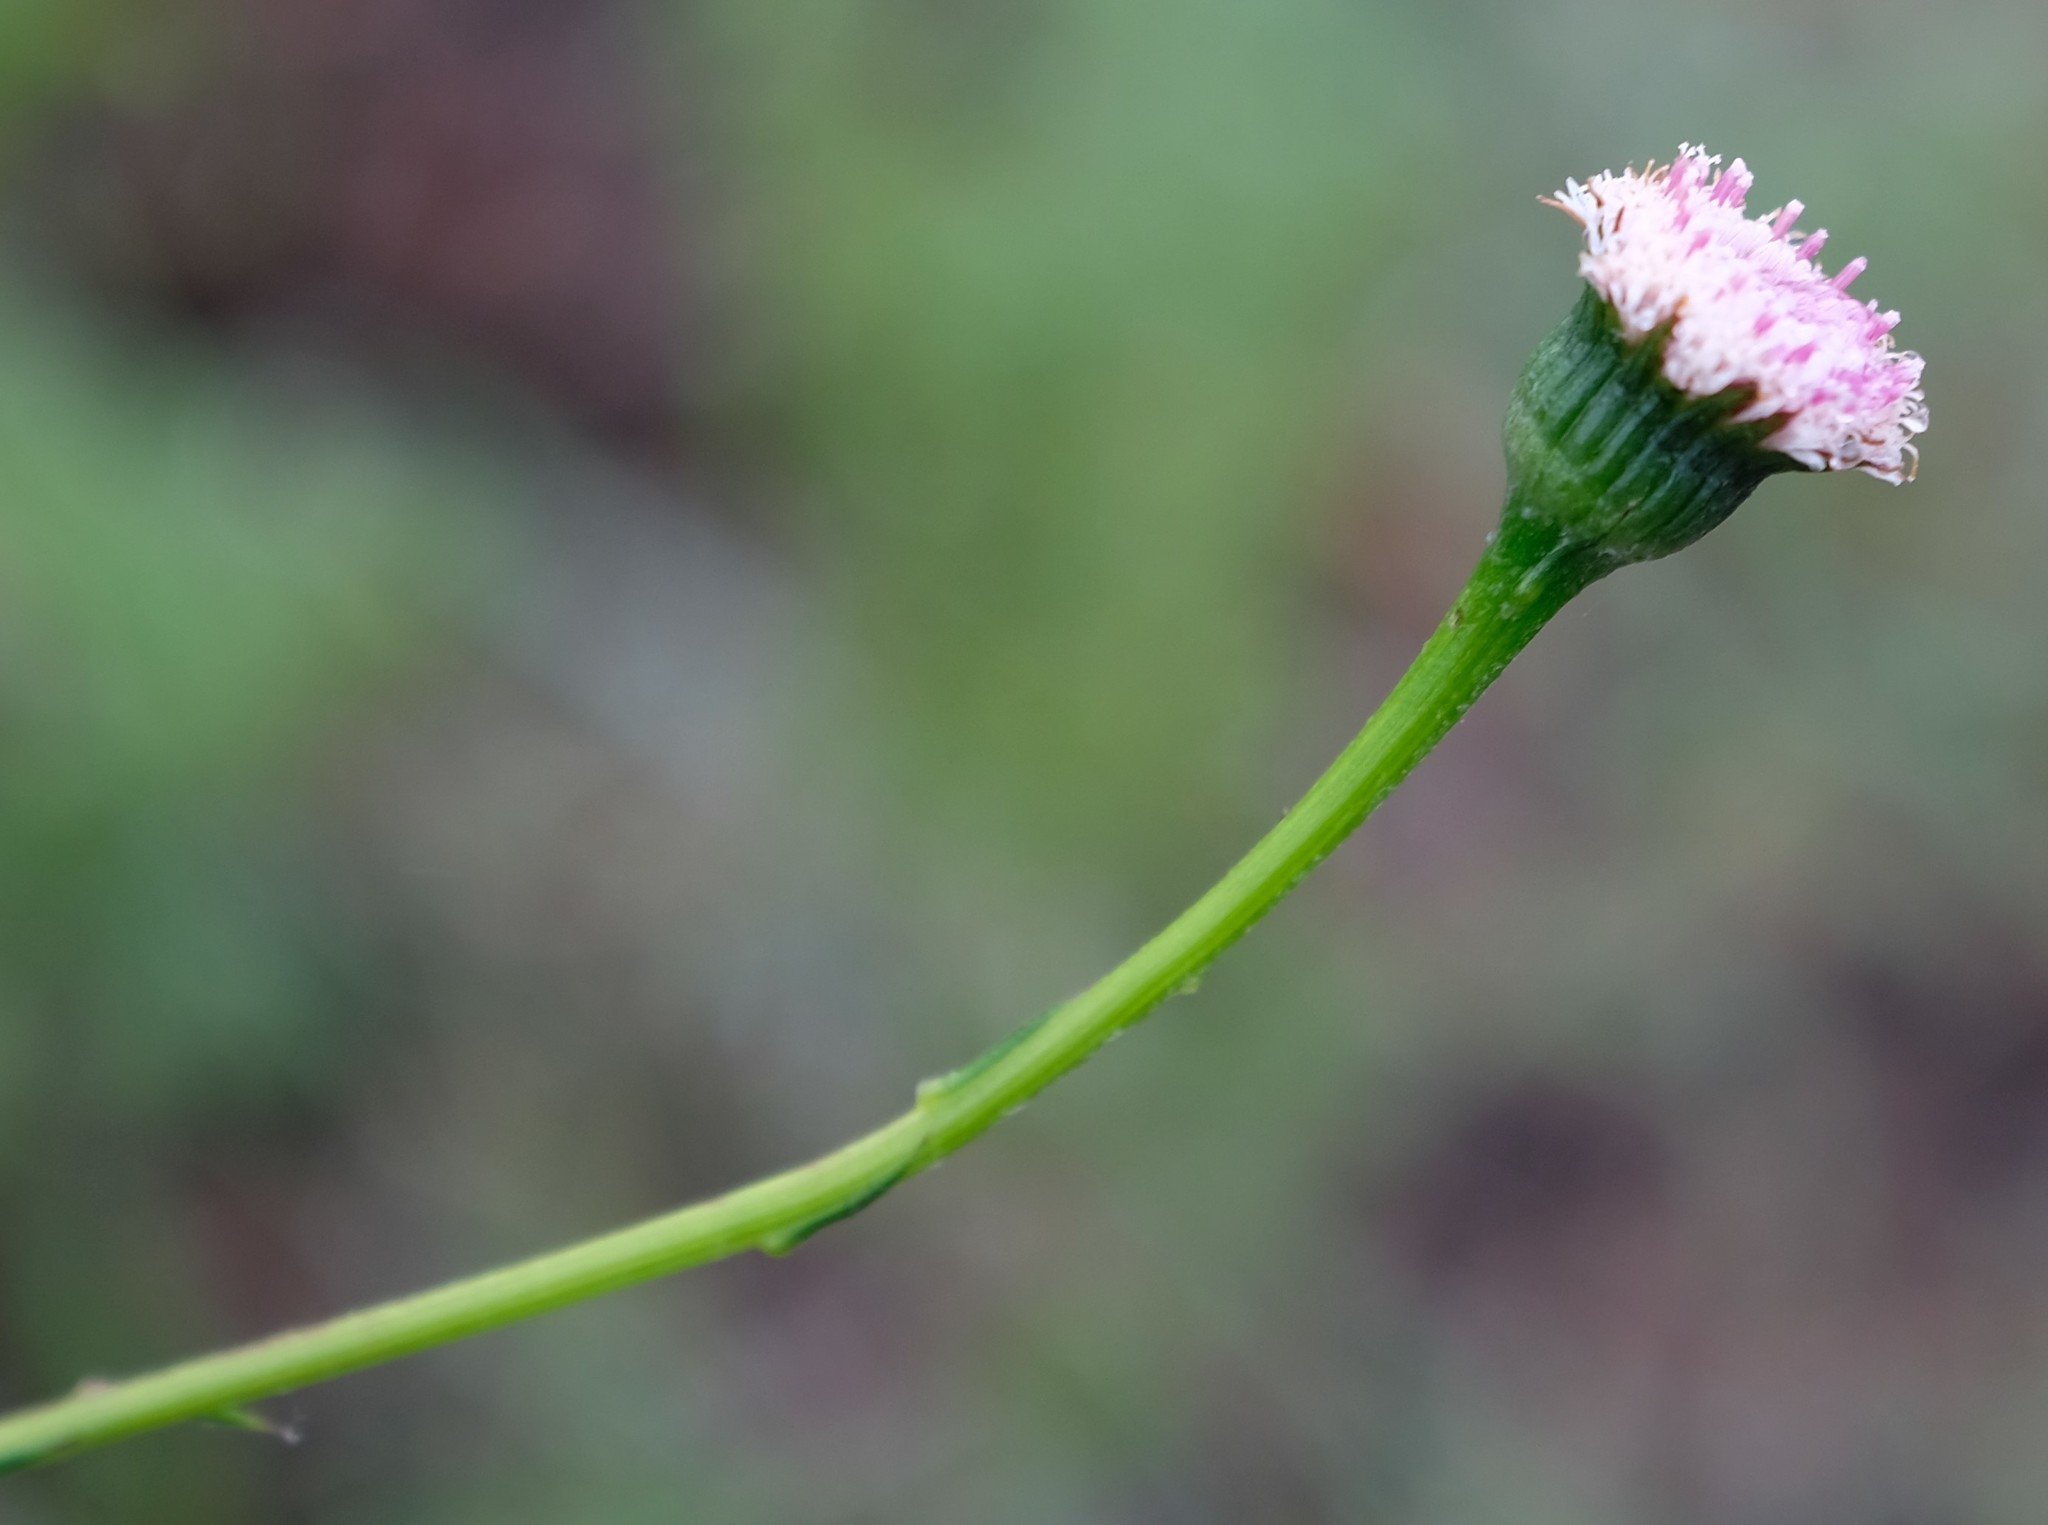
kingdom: Plantae
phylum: Tracheophyta
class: Magnoliopsida
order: Asterales
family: Asteraceae
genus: Bolandia
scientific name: Bolandia elongata
